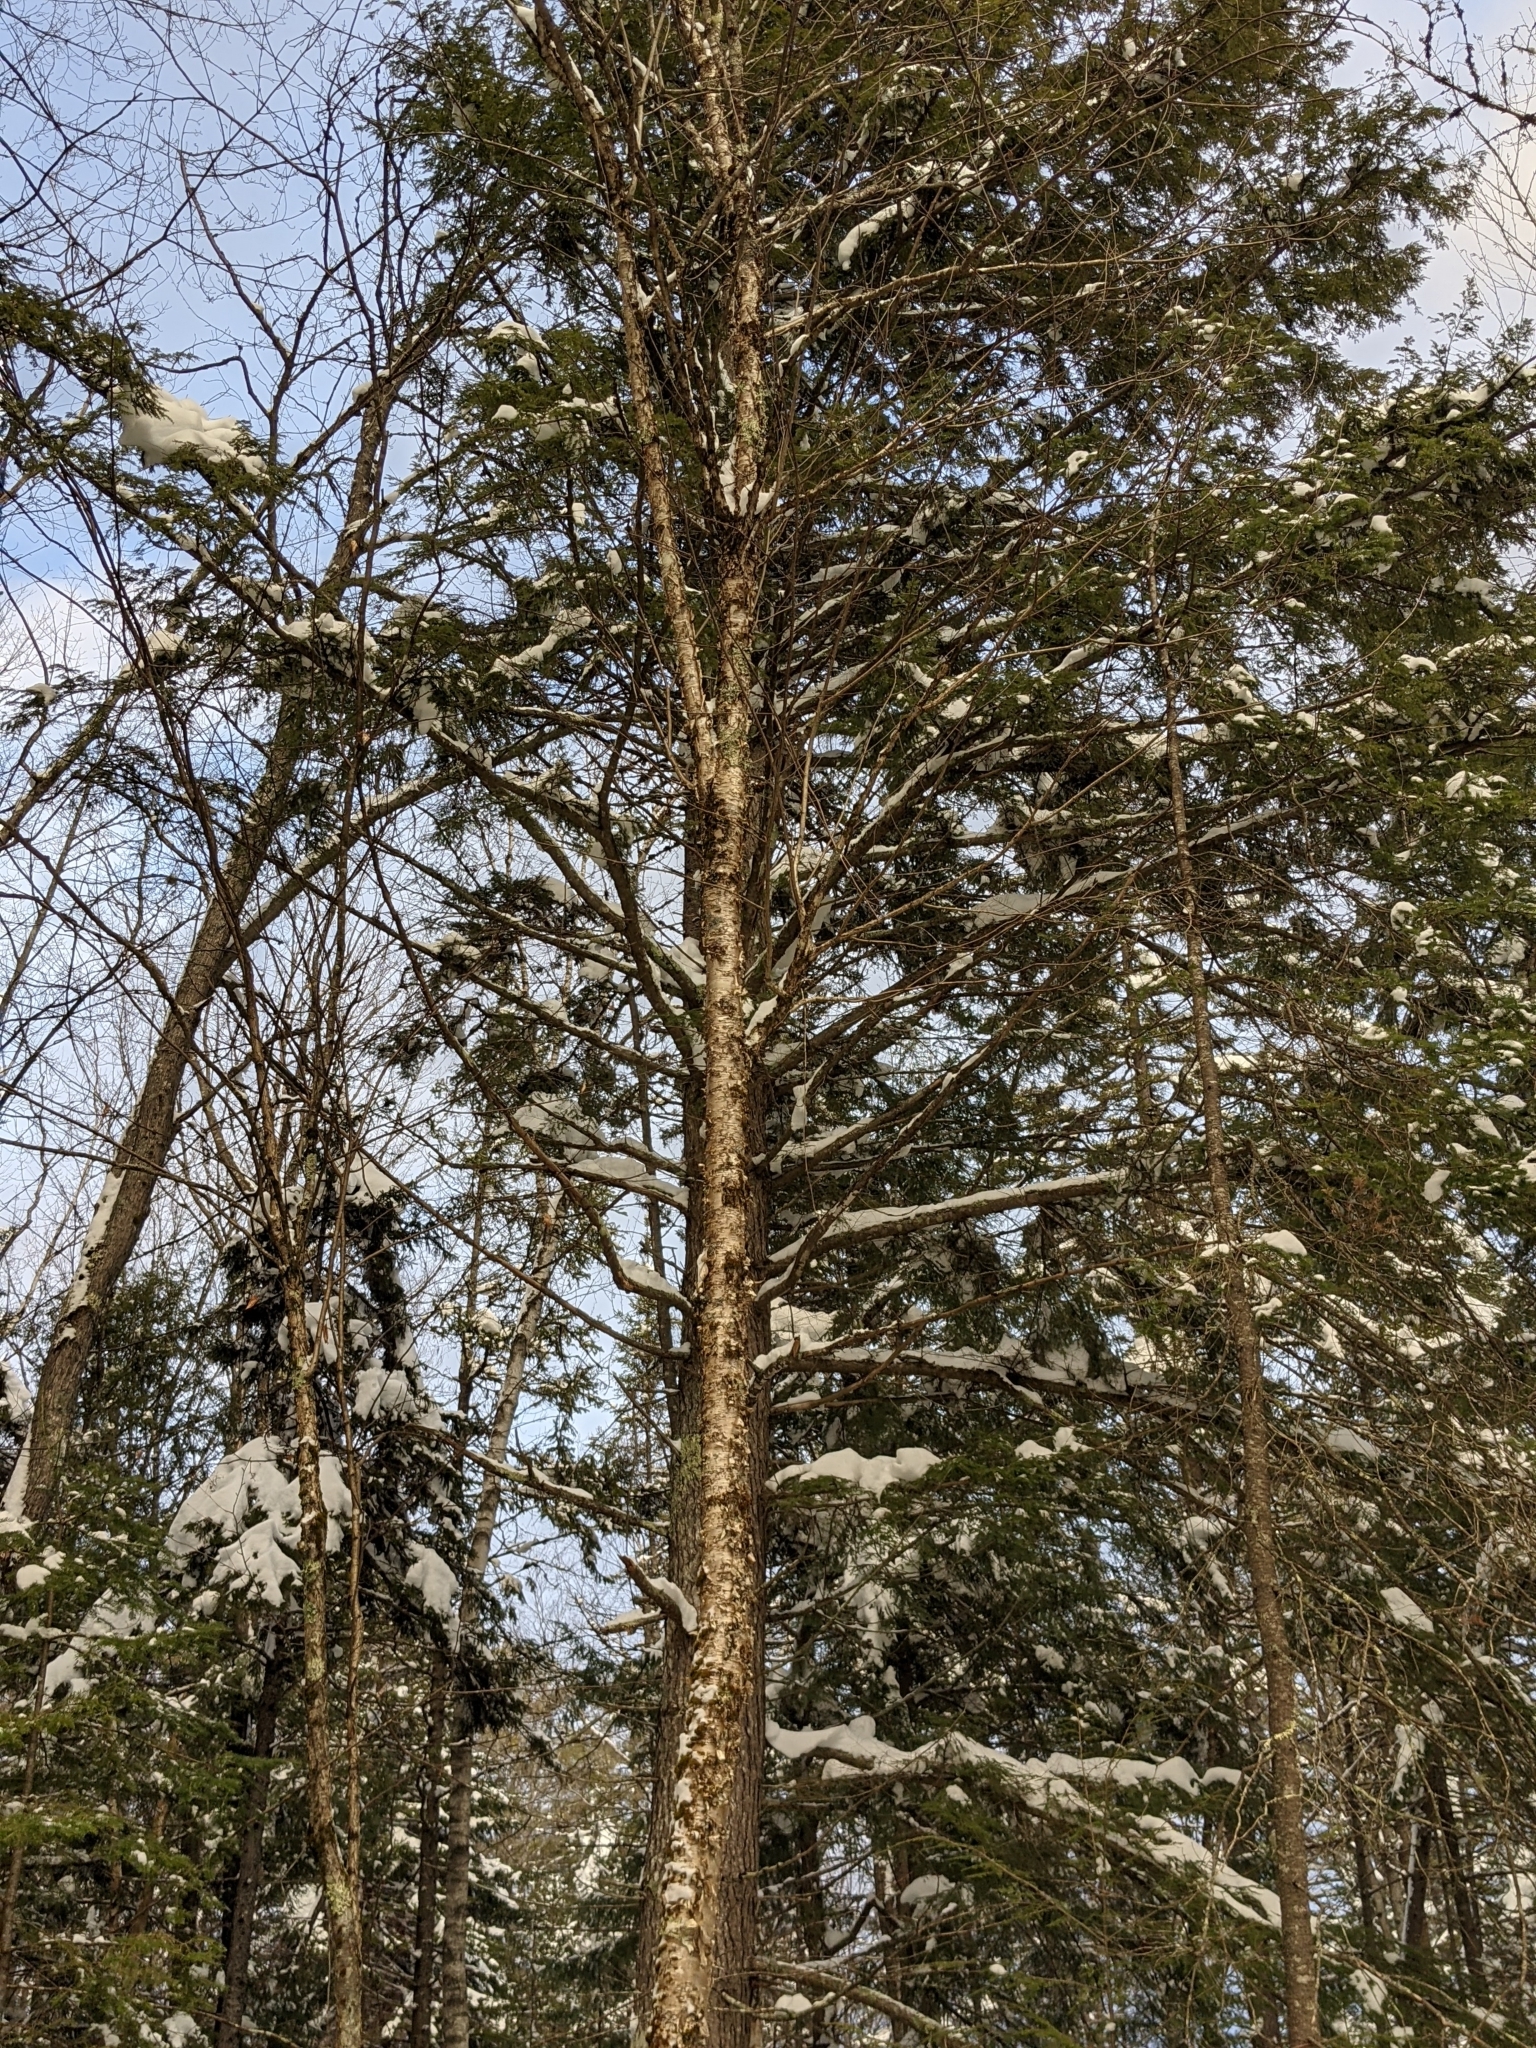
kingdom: Plantae
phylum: Tracheophyta
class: Magnoliopsida
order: Fagales
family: Betulaceae
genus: Betula
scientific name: Betula alleghaniensis
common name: Yellow birch
